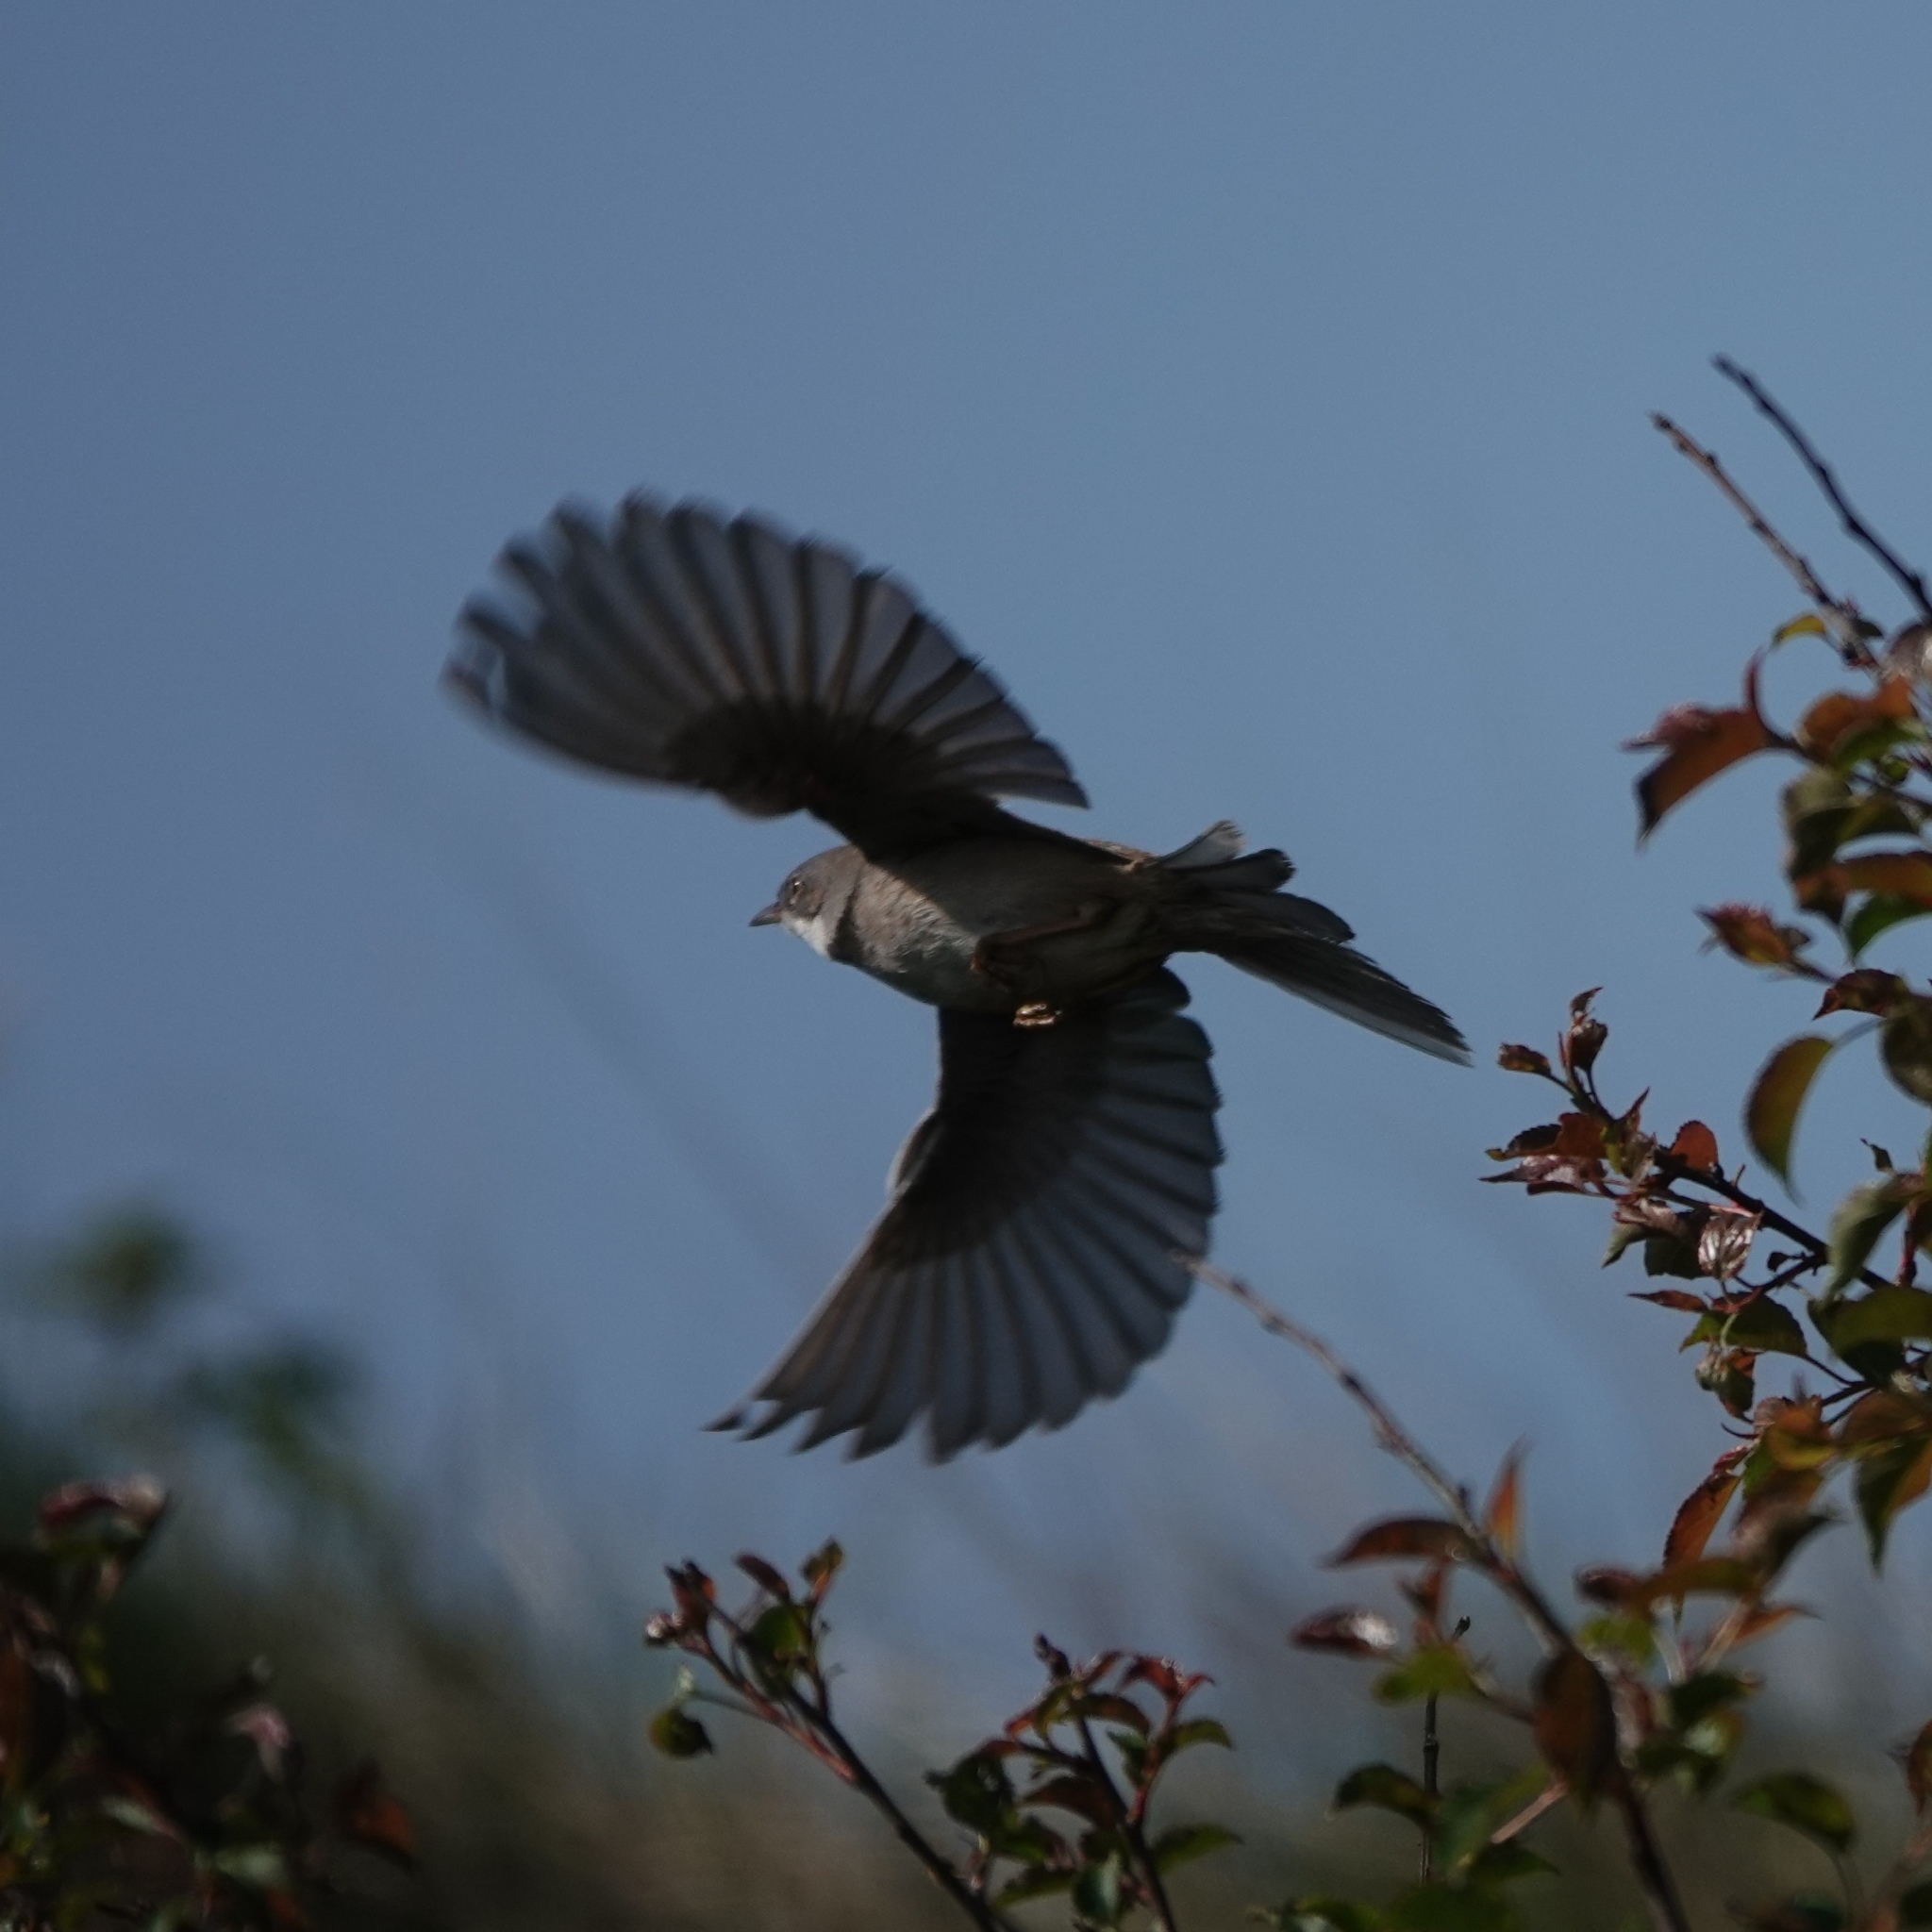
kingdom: Animalia
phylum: Chordata
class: Aves
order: Passeriformes
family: Sylviidae
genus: Sylvia
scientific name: Sylvia communis
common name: Common whitethroat
